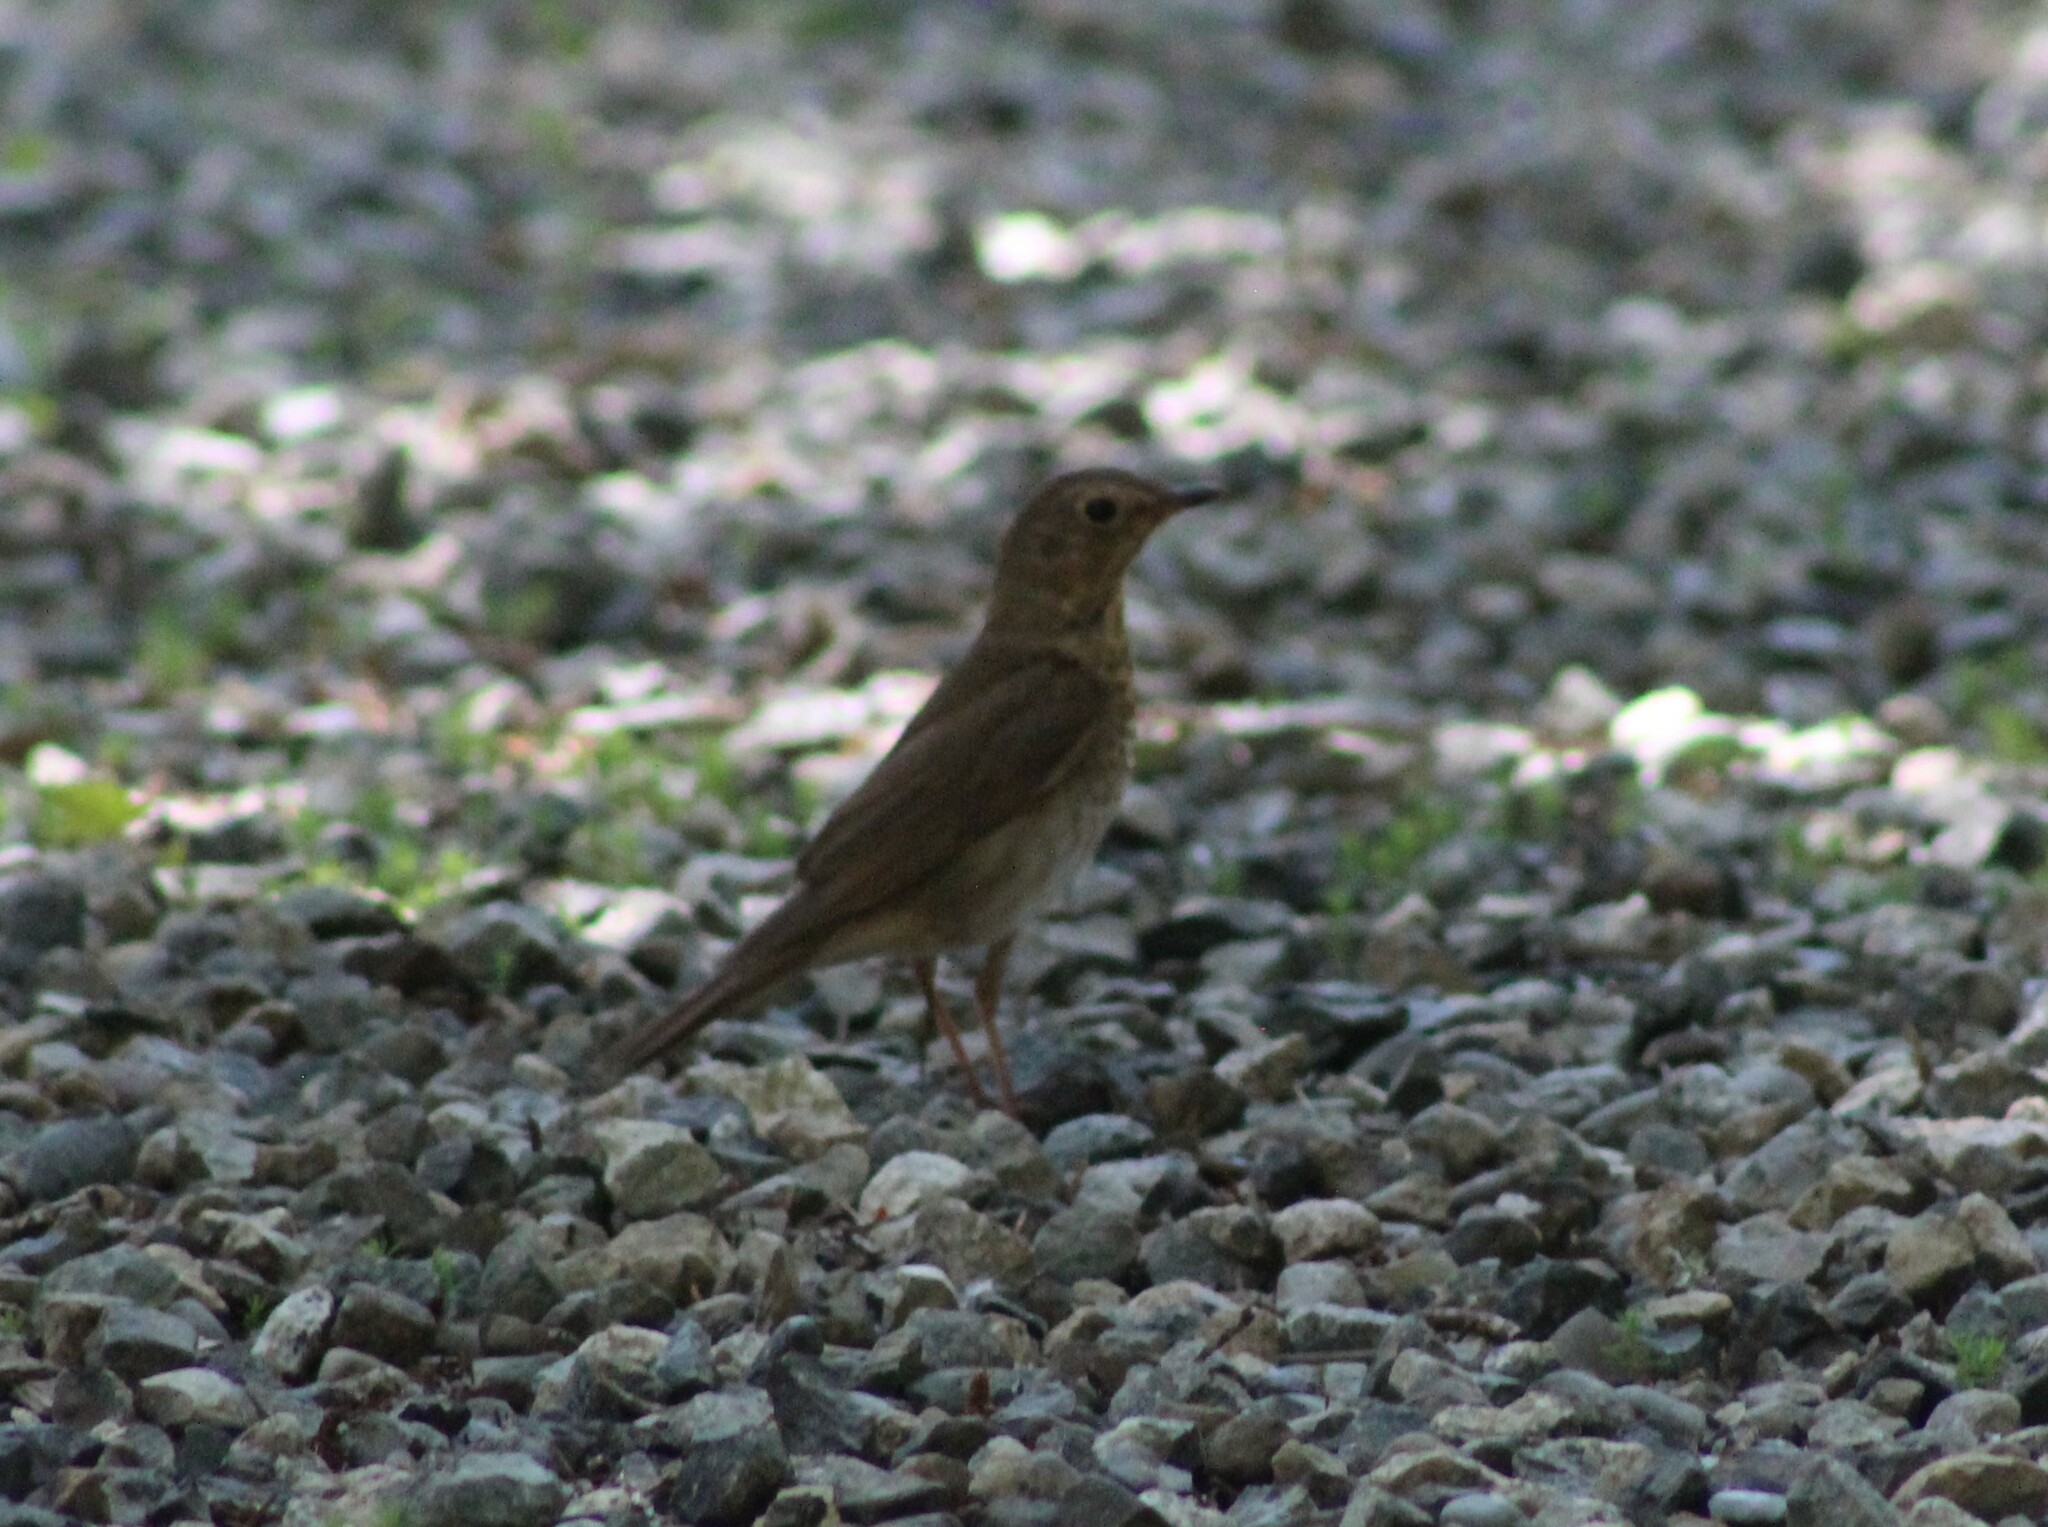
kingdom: Animalia
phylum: Chordata
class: Aves
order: Passeriformes
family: Turdidae
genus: Catharus
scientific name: Catharus ustulatus
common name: Swainson's thrush
